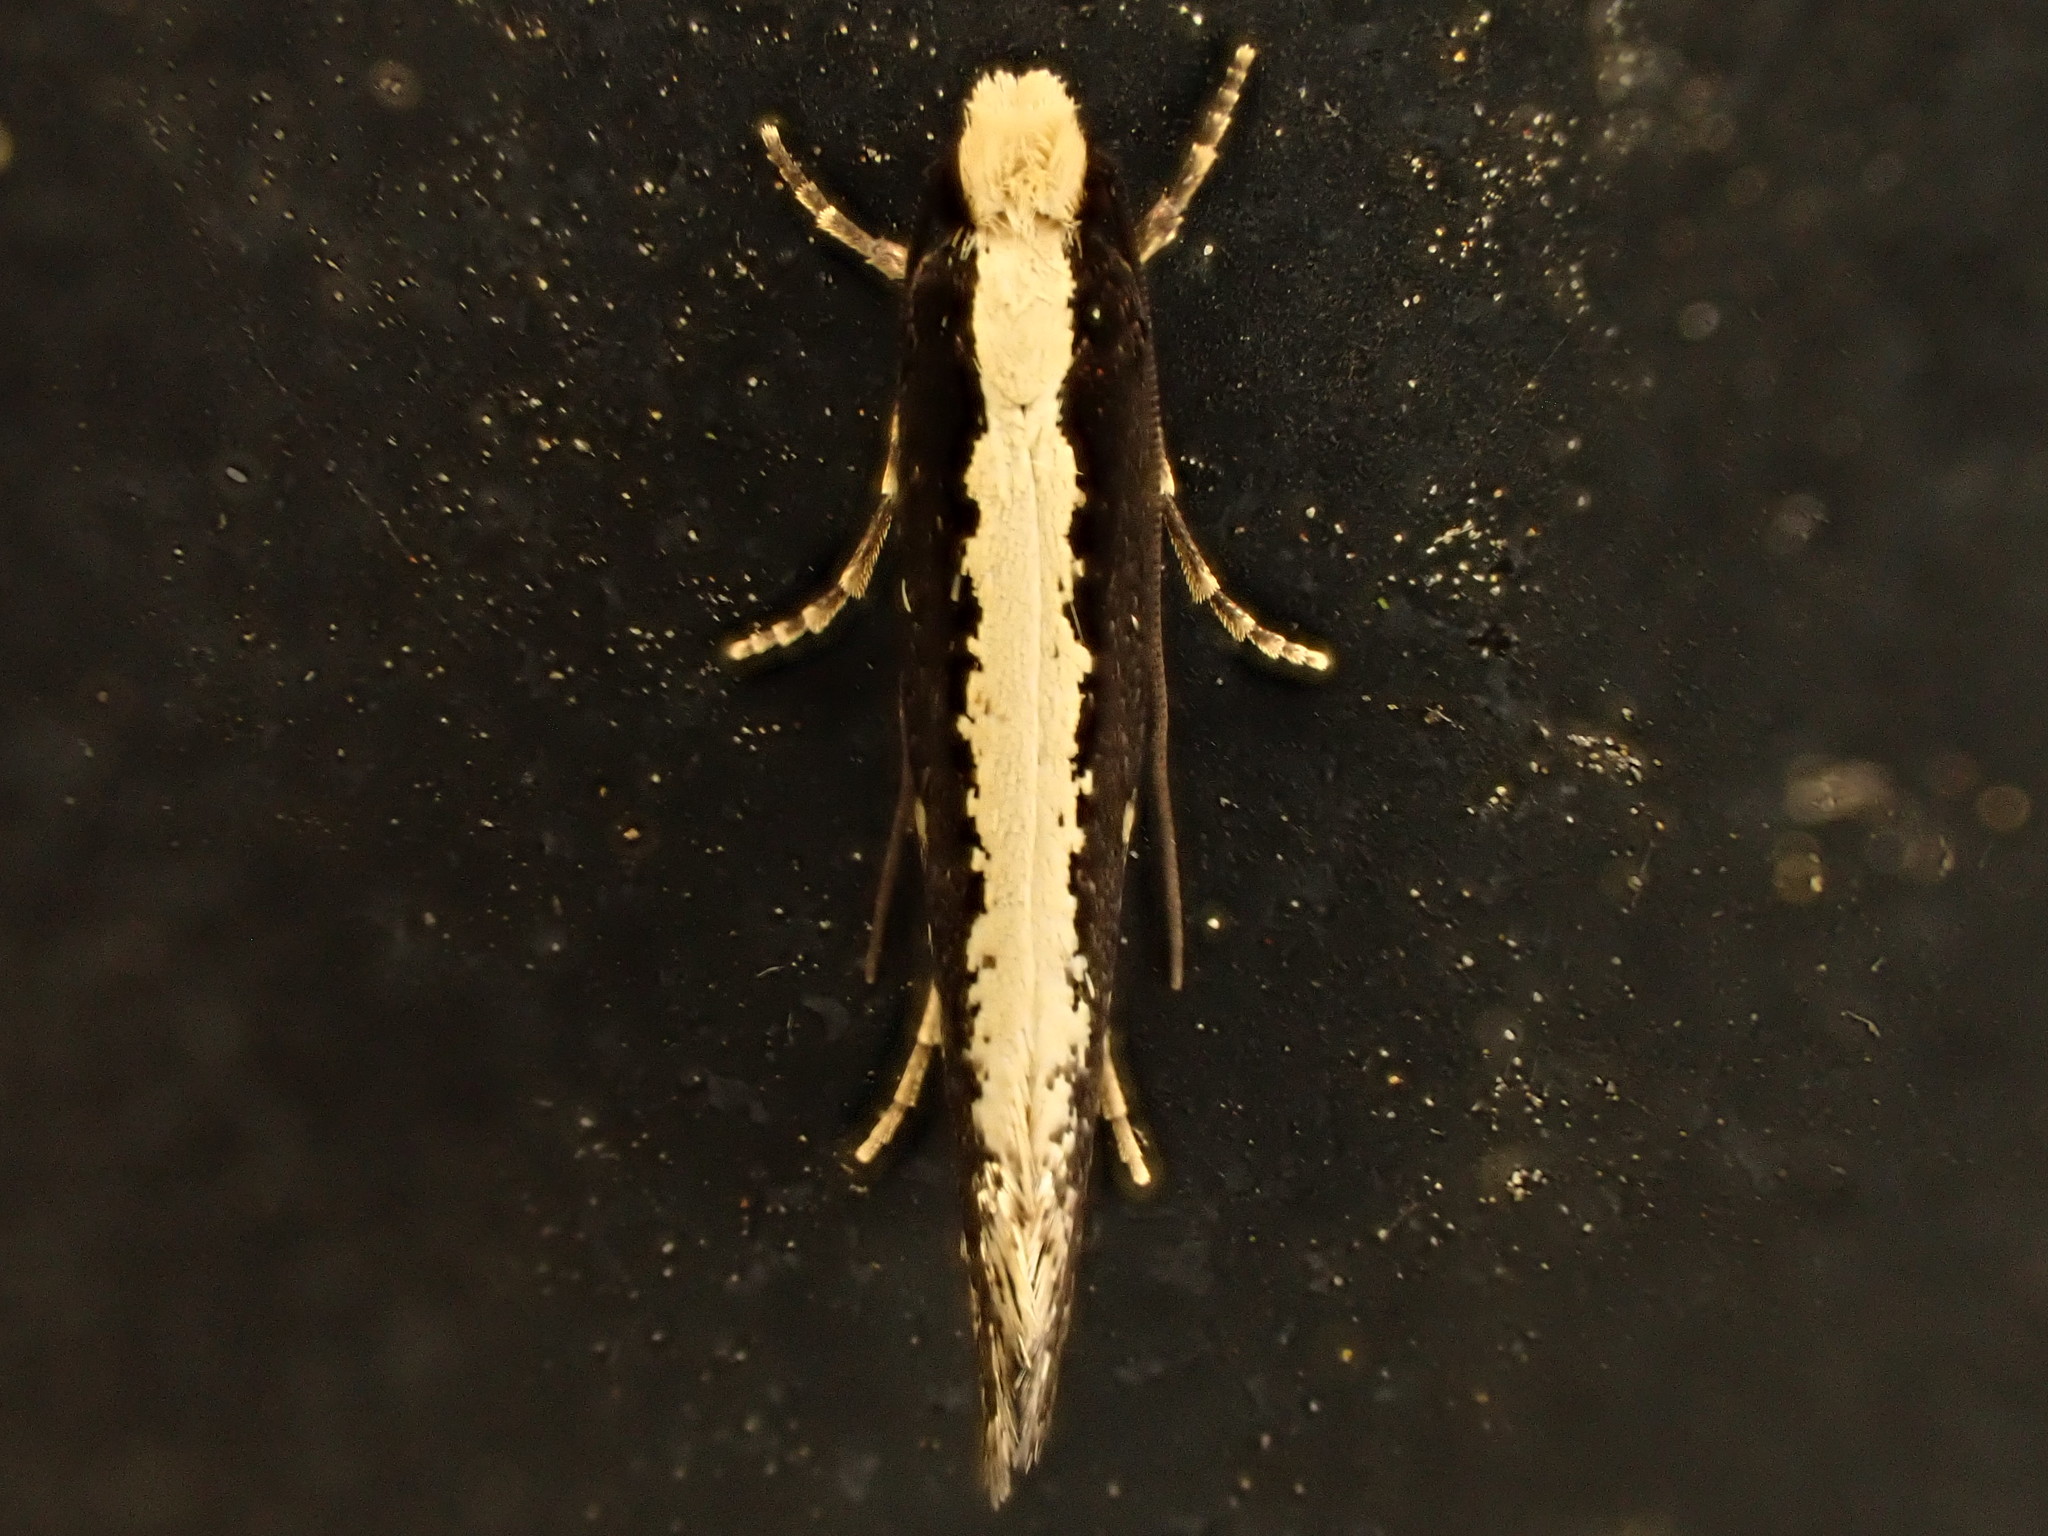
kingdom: Animalia
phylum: Arthropoda
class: Insecta
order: Lepidoptera
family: Tineidae
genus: Monopis
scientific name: Monopis ethelella
